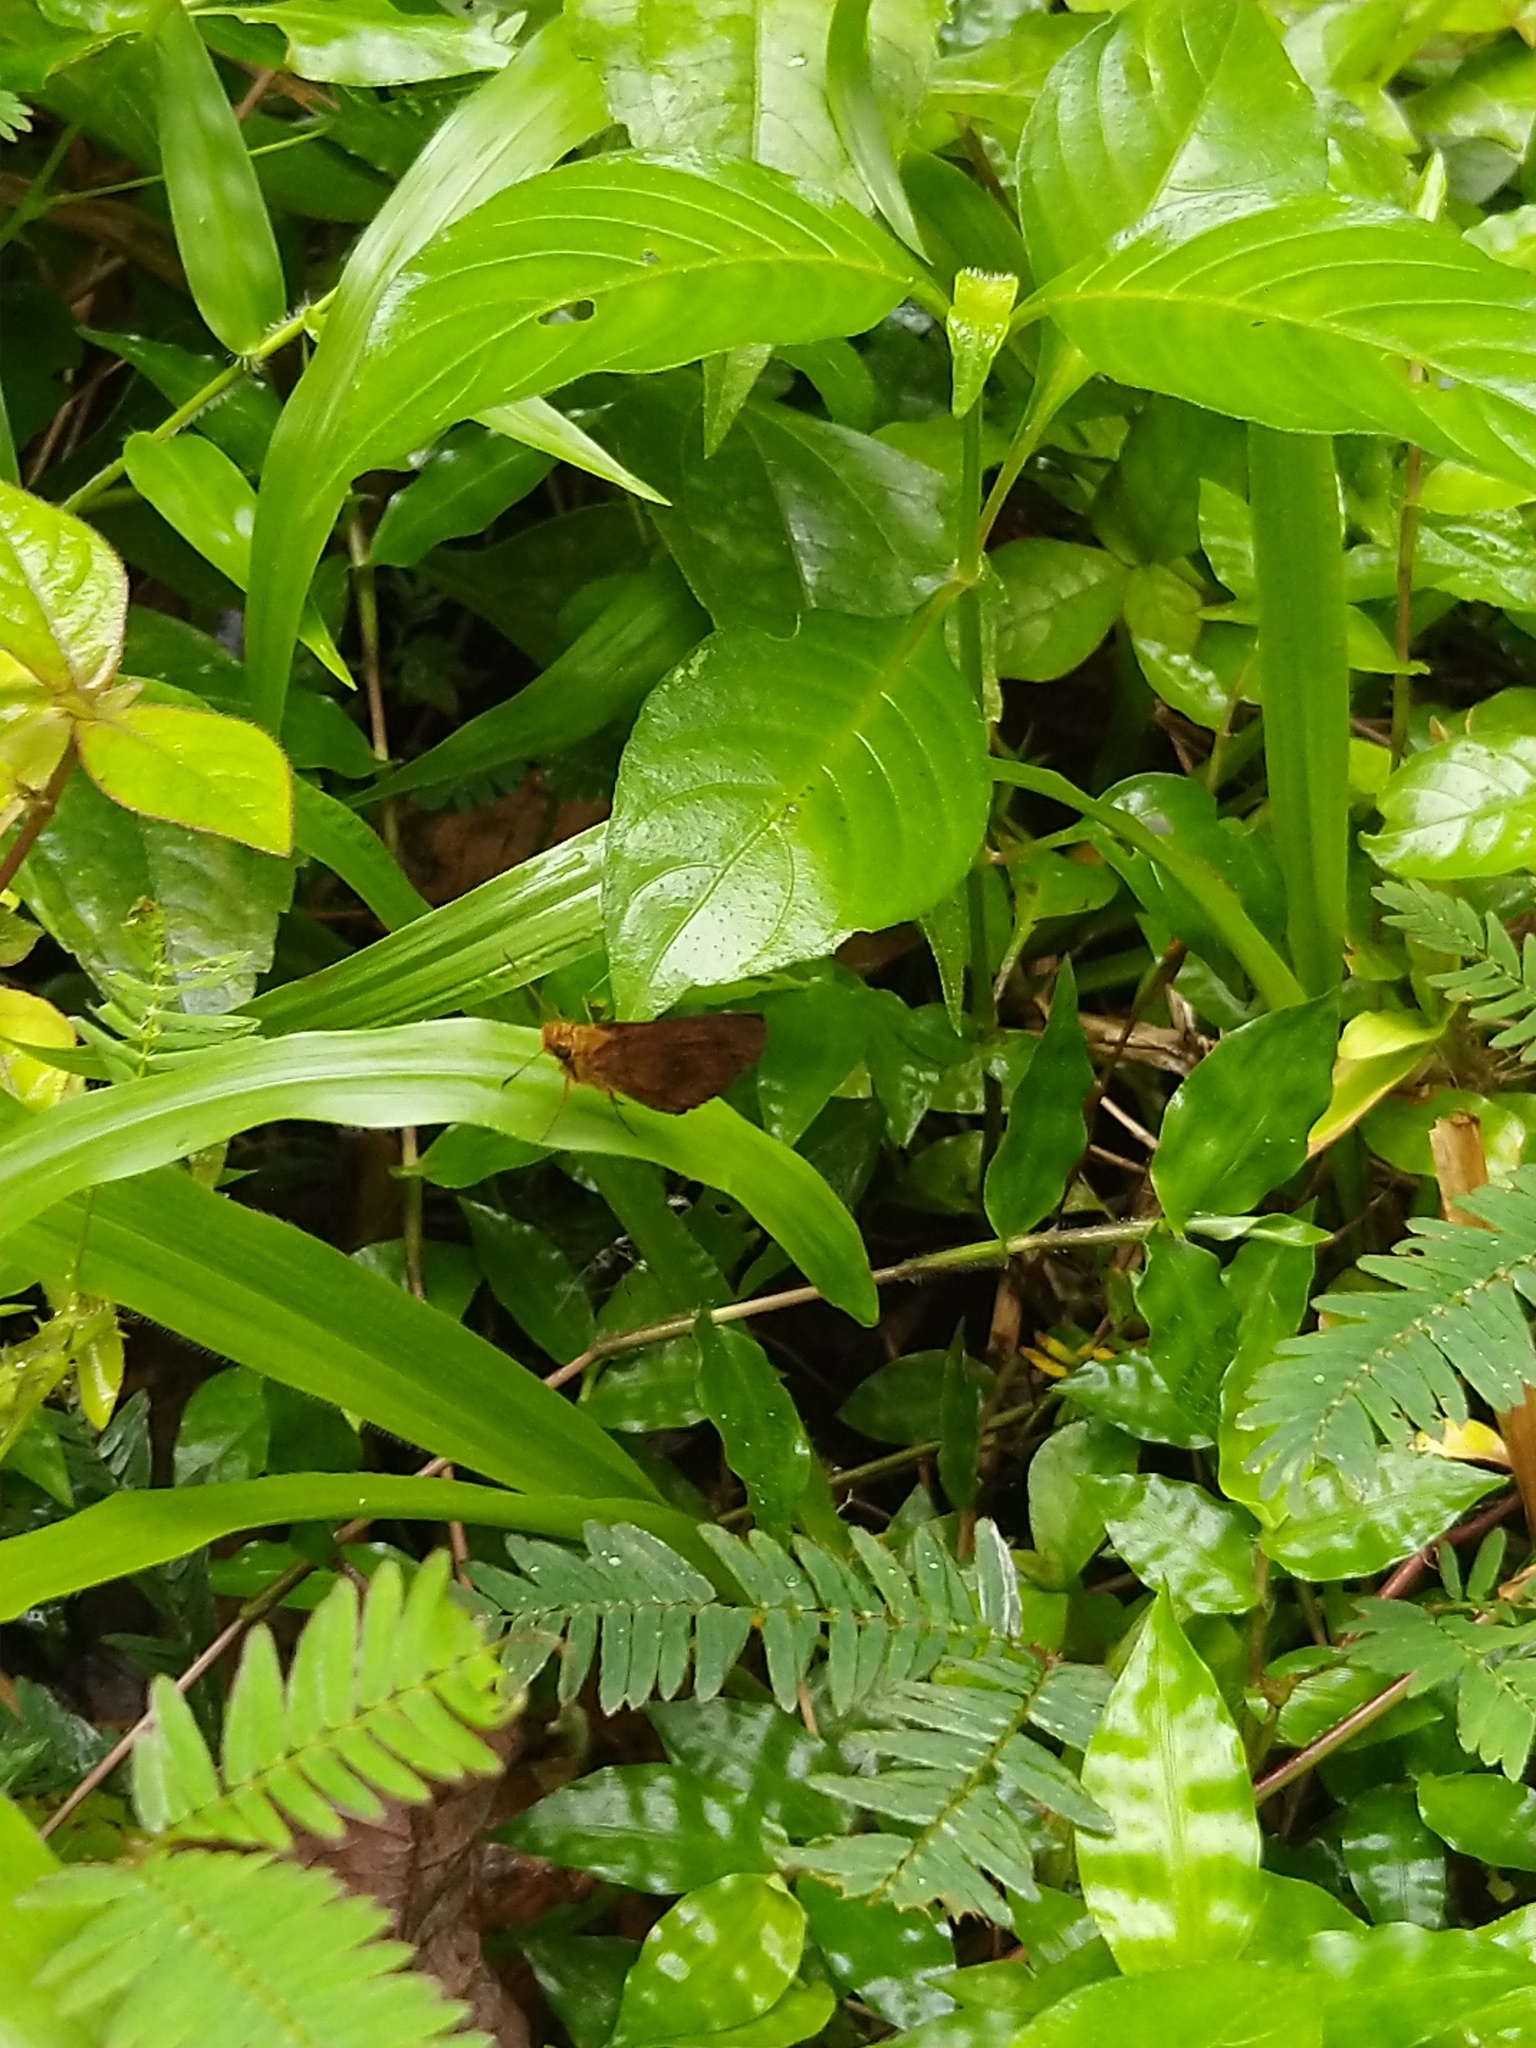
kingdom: Animalia
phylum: Arthropoda
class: Insecta
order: Lepidoptera
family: Hesperiidae
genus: Iambrix
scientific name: Iambrix salsala
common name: Chestnut bob
